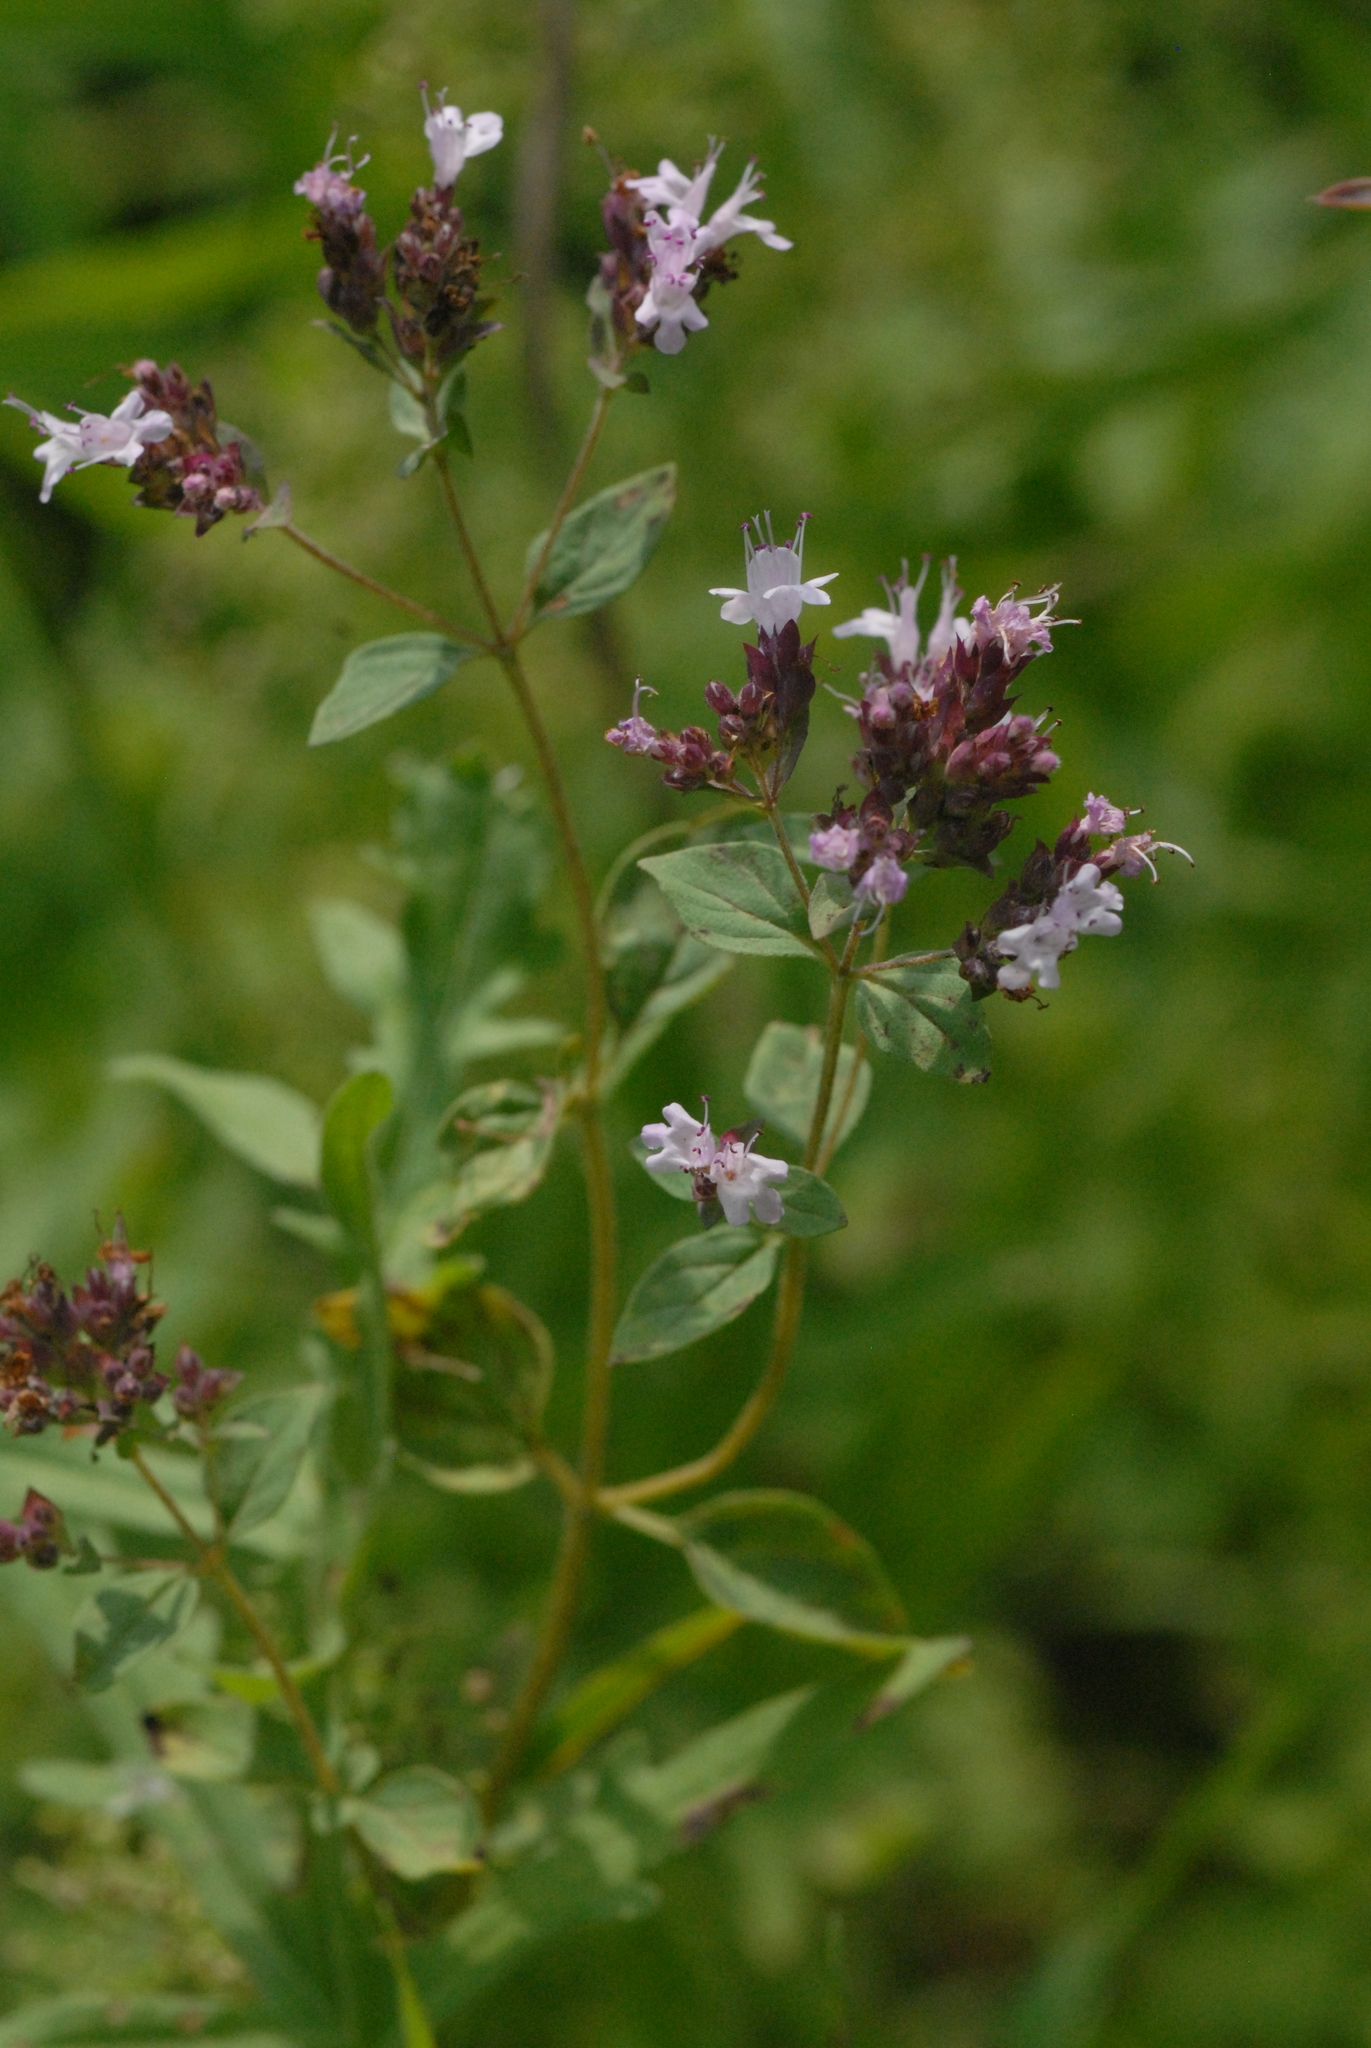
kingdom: Plantae
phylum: Tracheophyta
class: Magnoliopsida
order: Lamiales
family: Lamiaceae
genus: Origanum
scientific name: Origanum vulgare
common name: Wild marjoram
